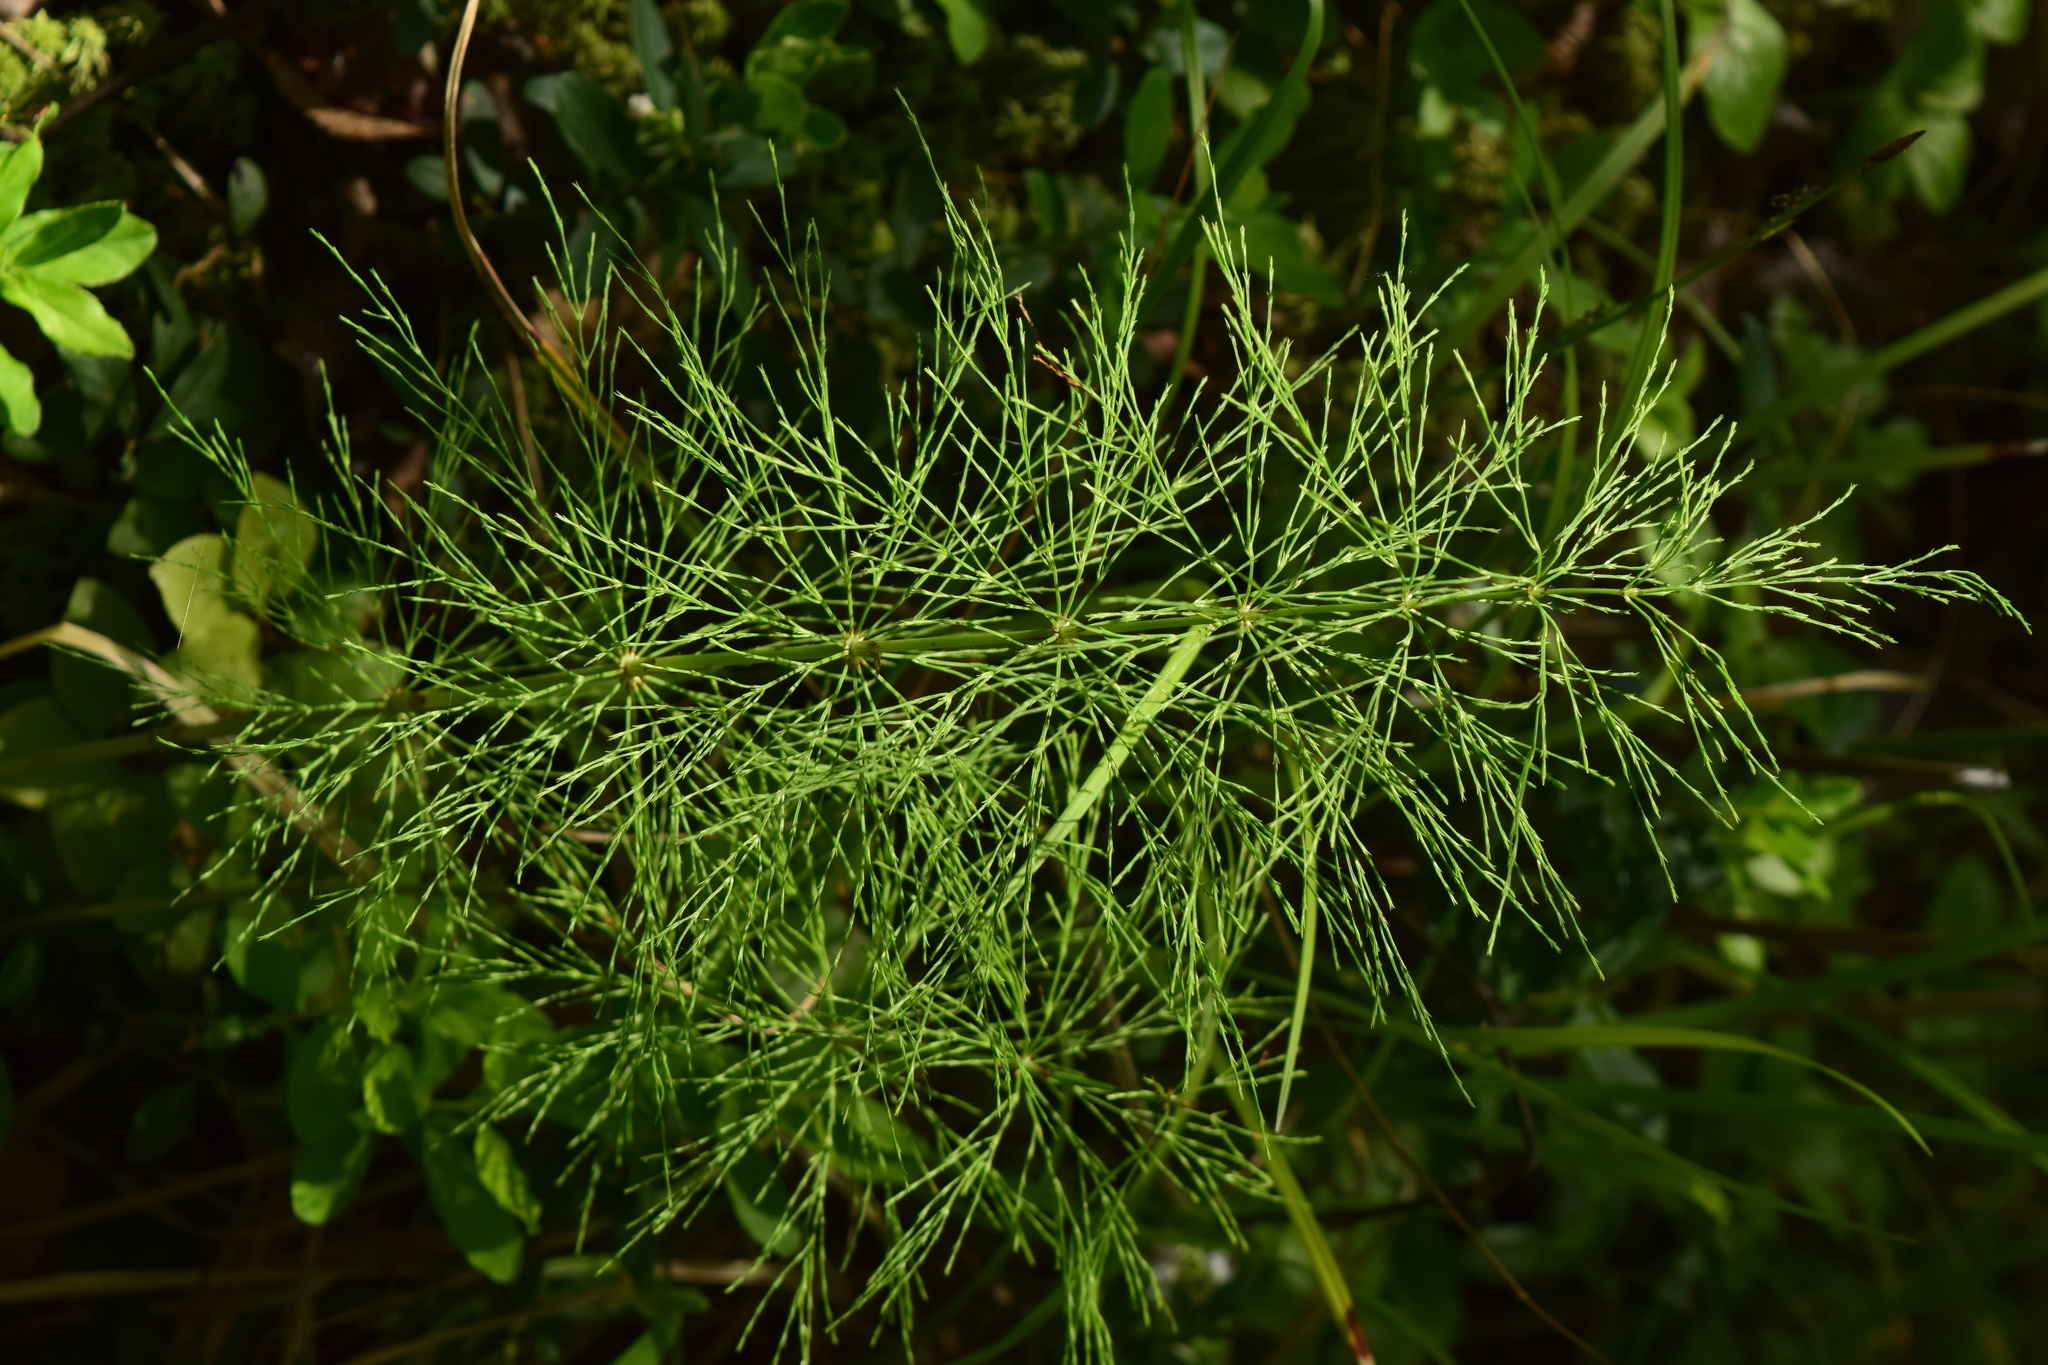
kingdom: Plantae
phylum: Tracheophyta
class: Polypodiopsida
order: Equisetales
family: Equisetaceae
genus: Equisetum
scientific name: Equisetum sylvaticum
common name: Wood horsetail
